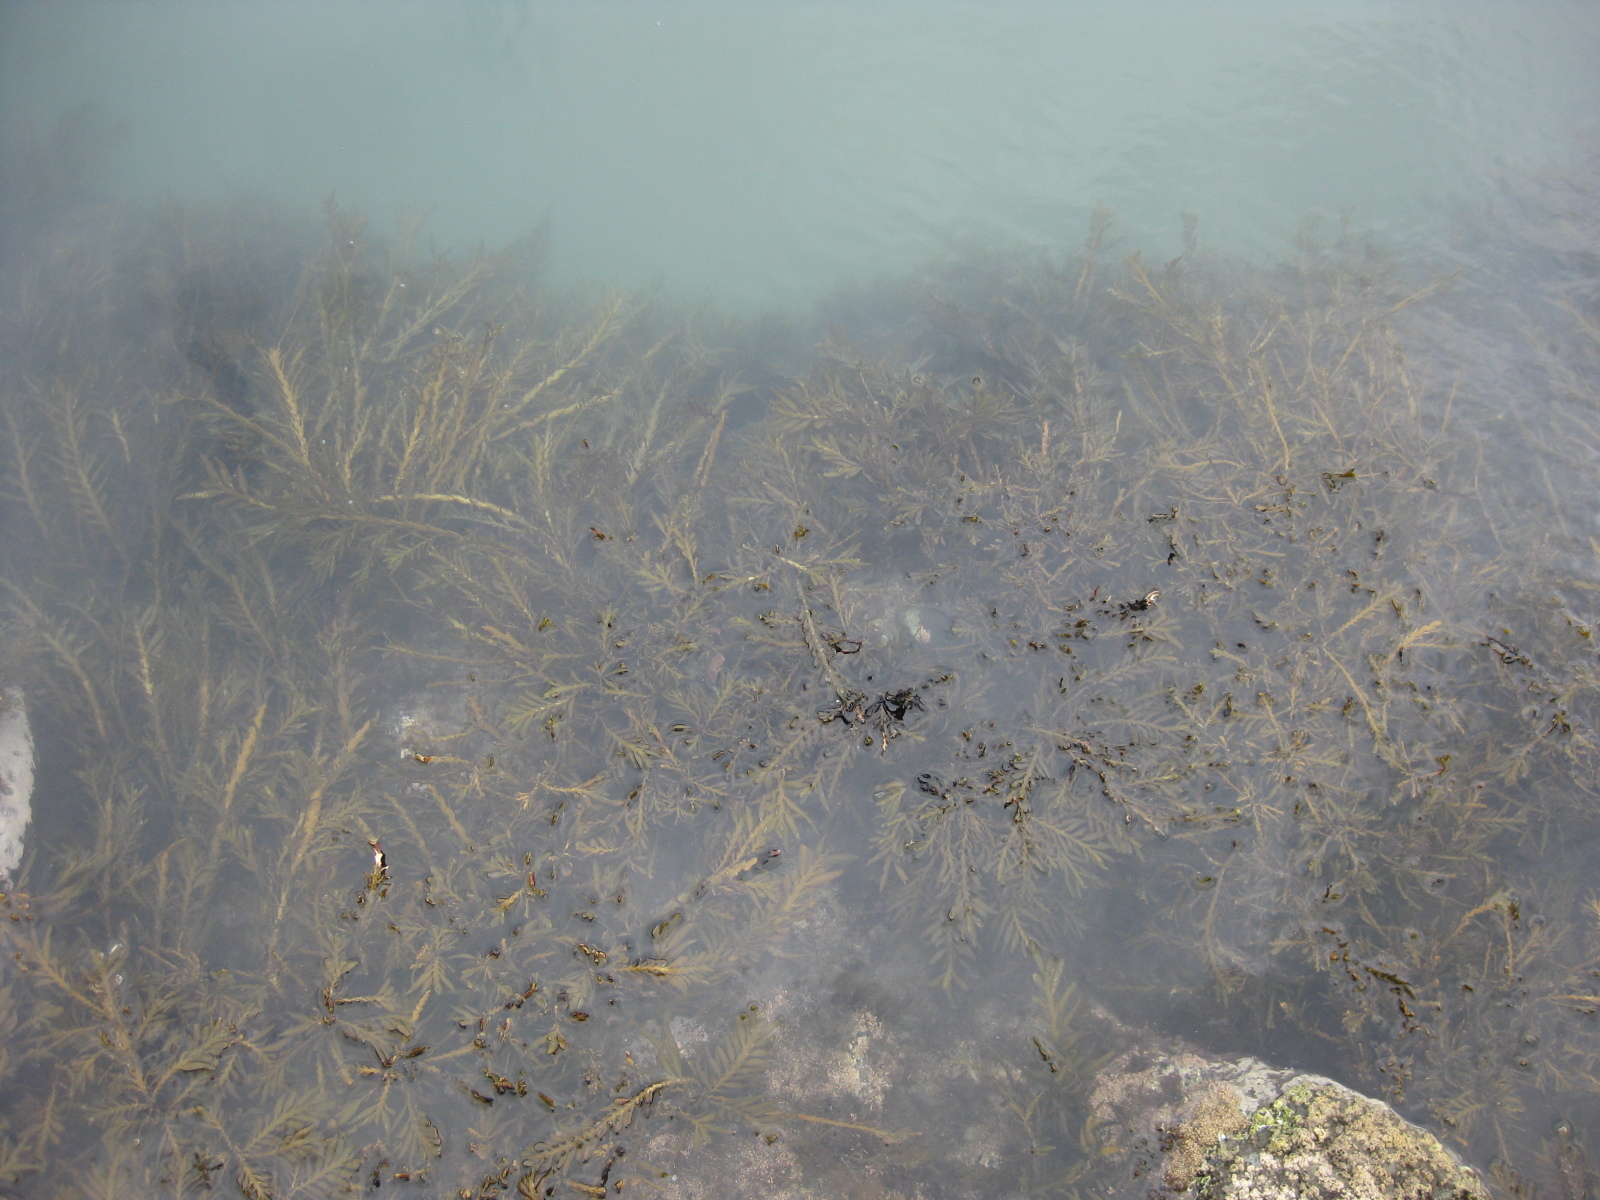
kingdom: Chromista
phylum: Ochrophyta
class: Phaeophyceae
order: Fucales
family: Sargassaceae
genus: Carpophyllum
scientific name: Carpophyllum maschalocarpum
